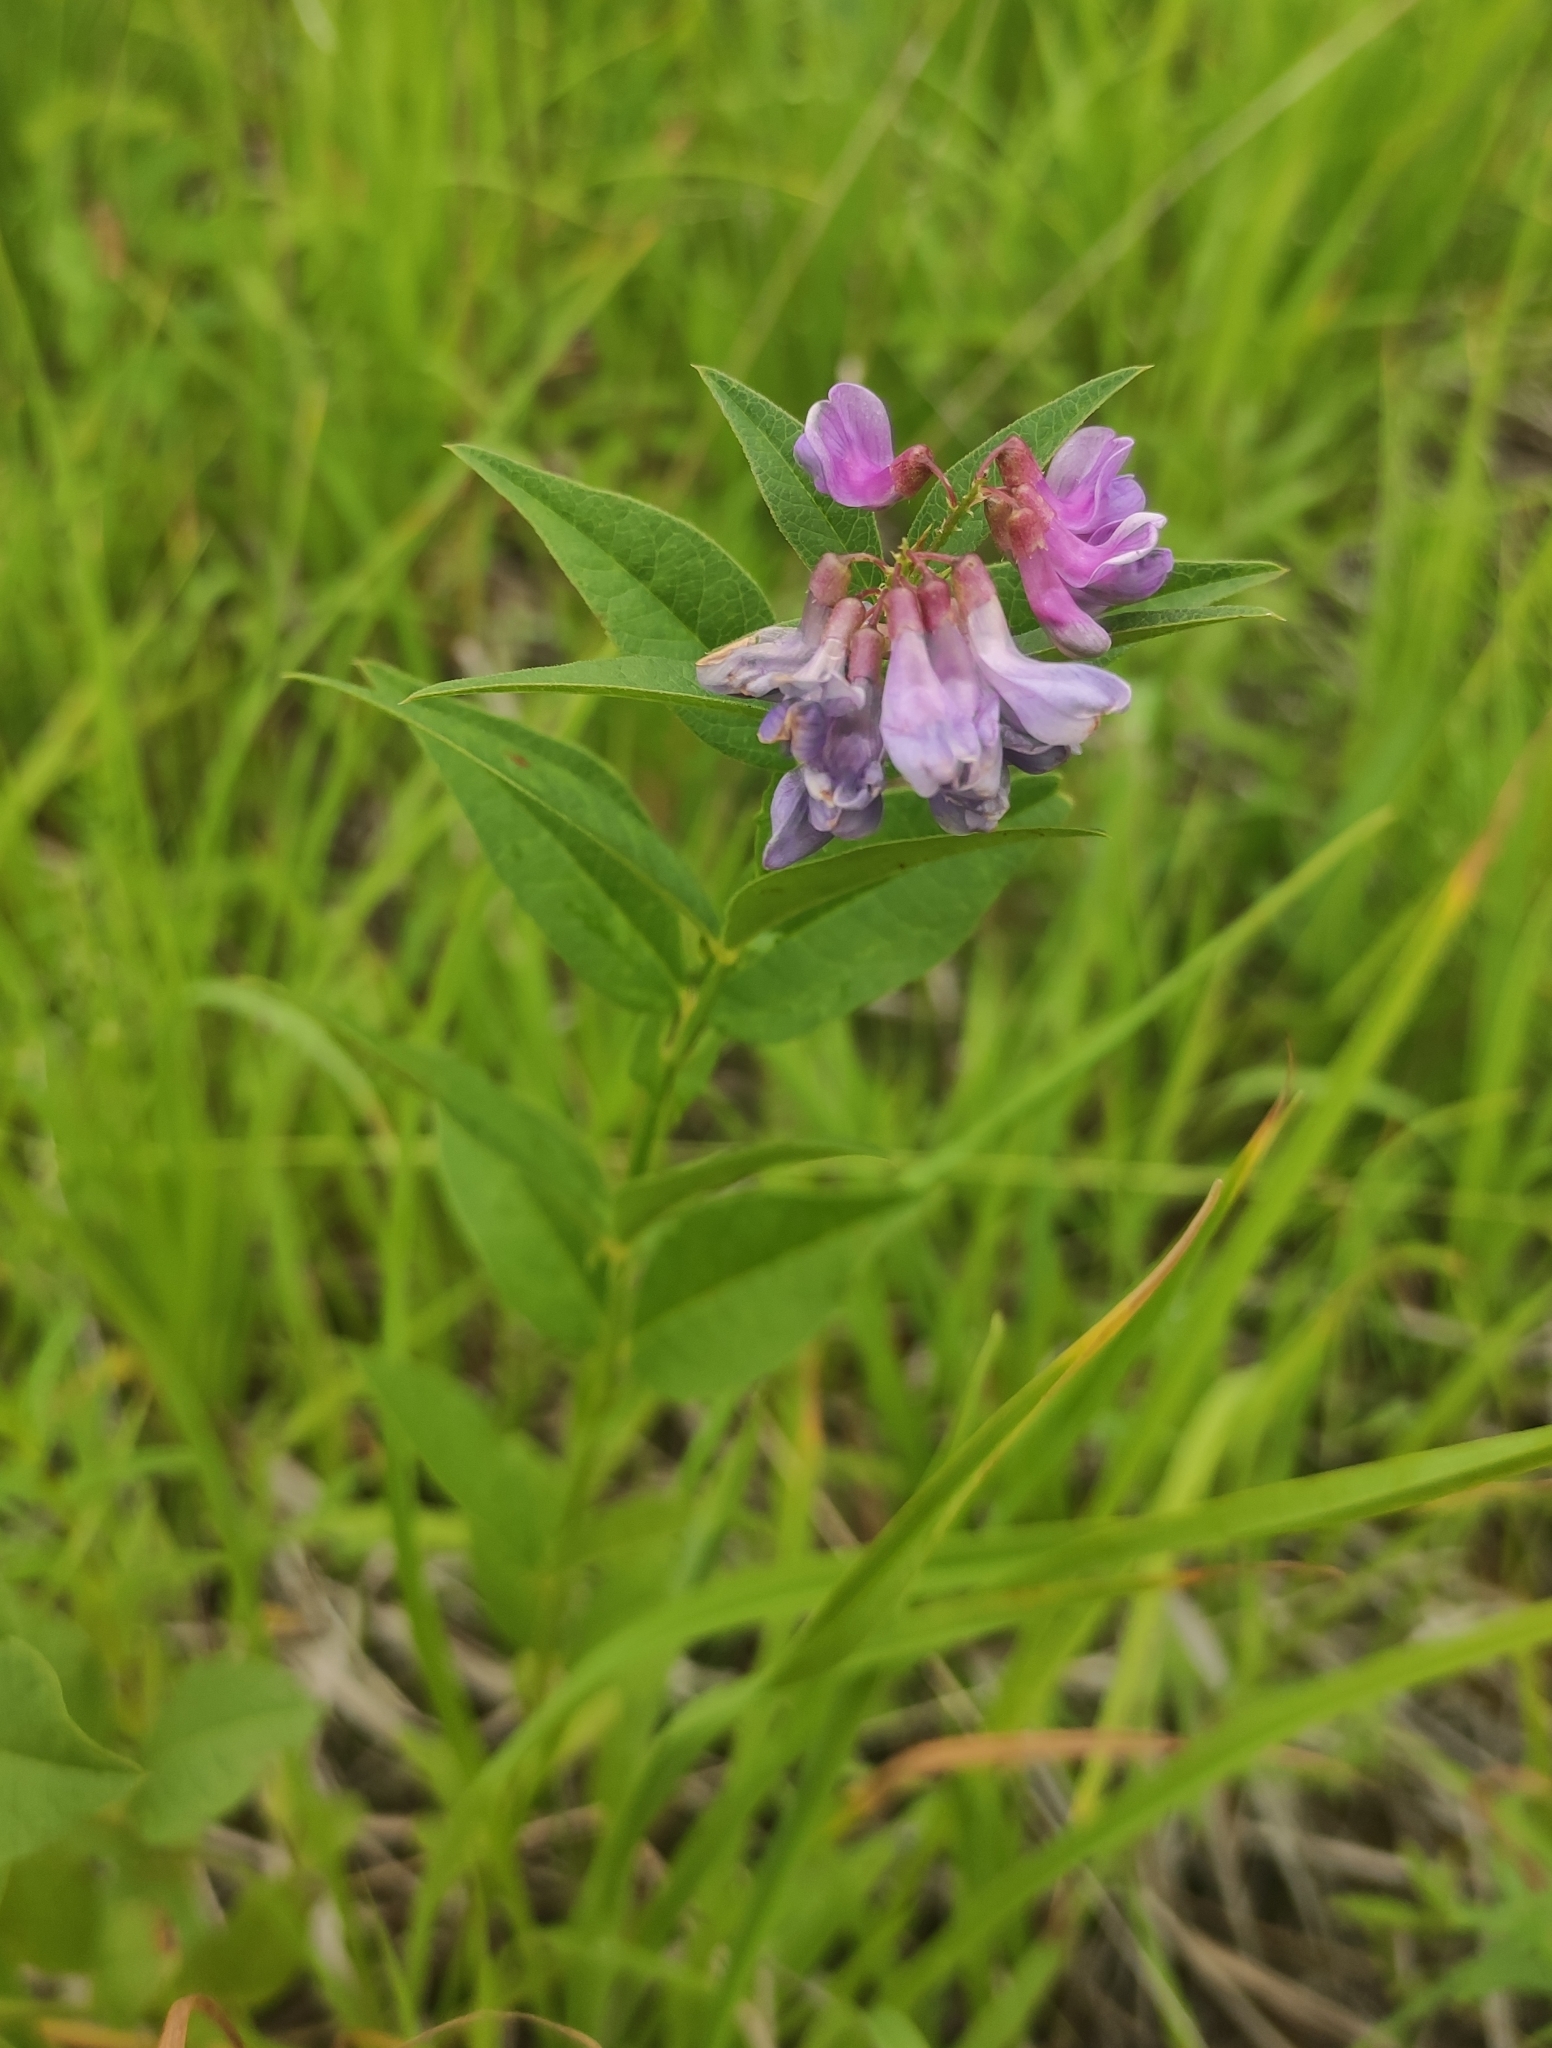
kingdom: Plantae
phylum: Tracheophyta
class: Magnoliopsida
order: Fabales
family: Fabaceae
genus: Vicia
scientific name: Vicia unijuga
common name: Two-leaf vetch
